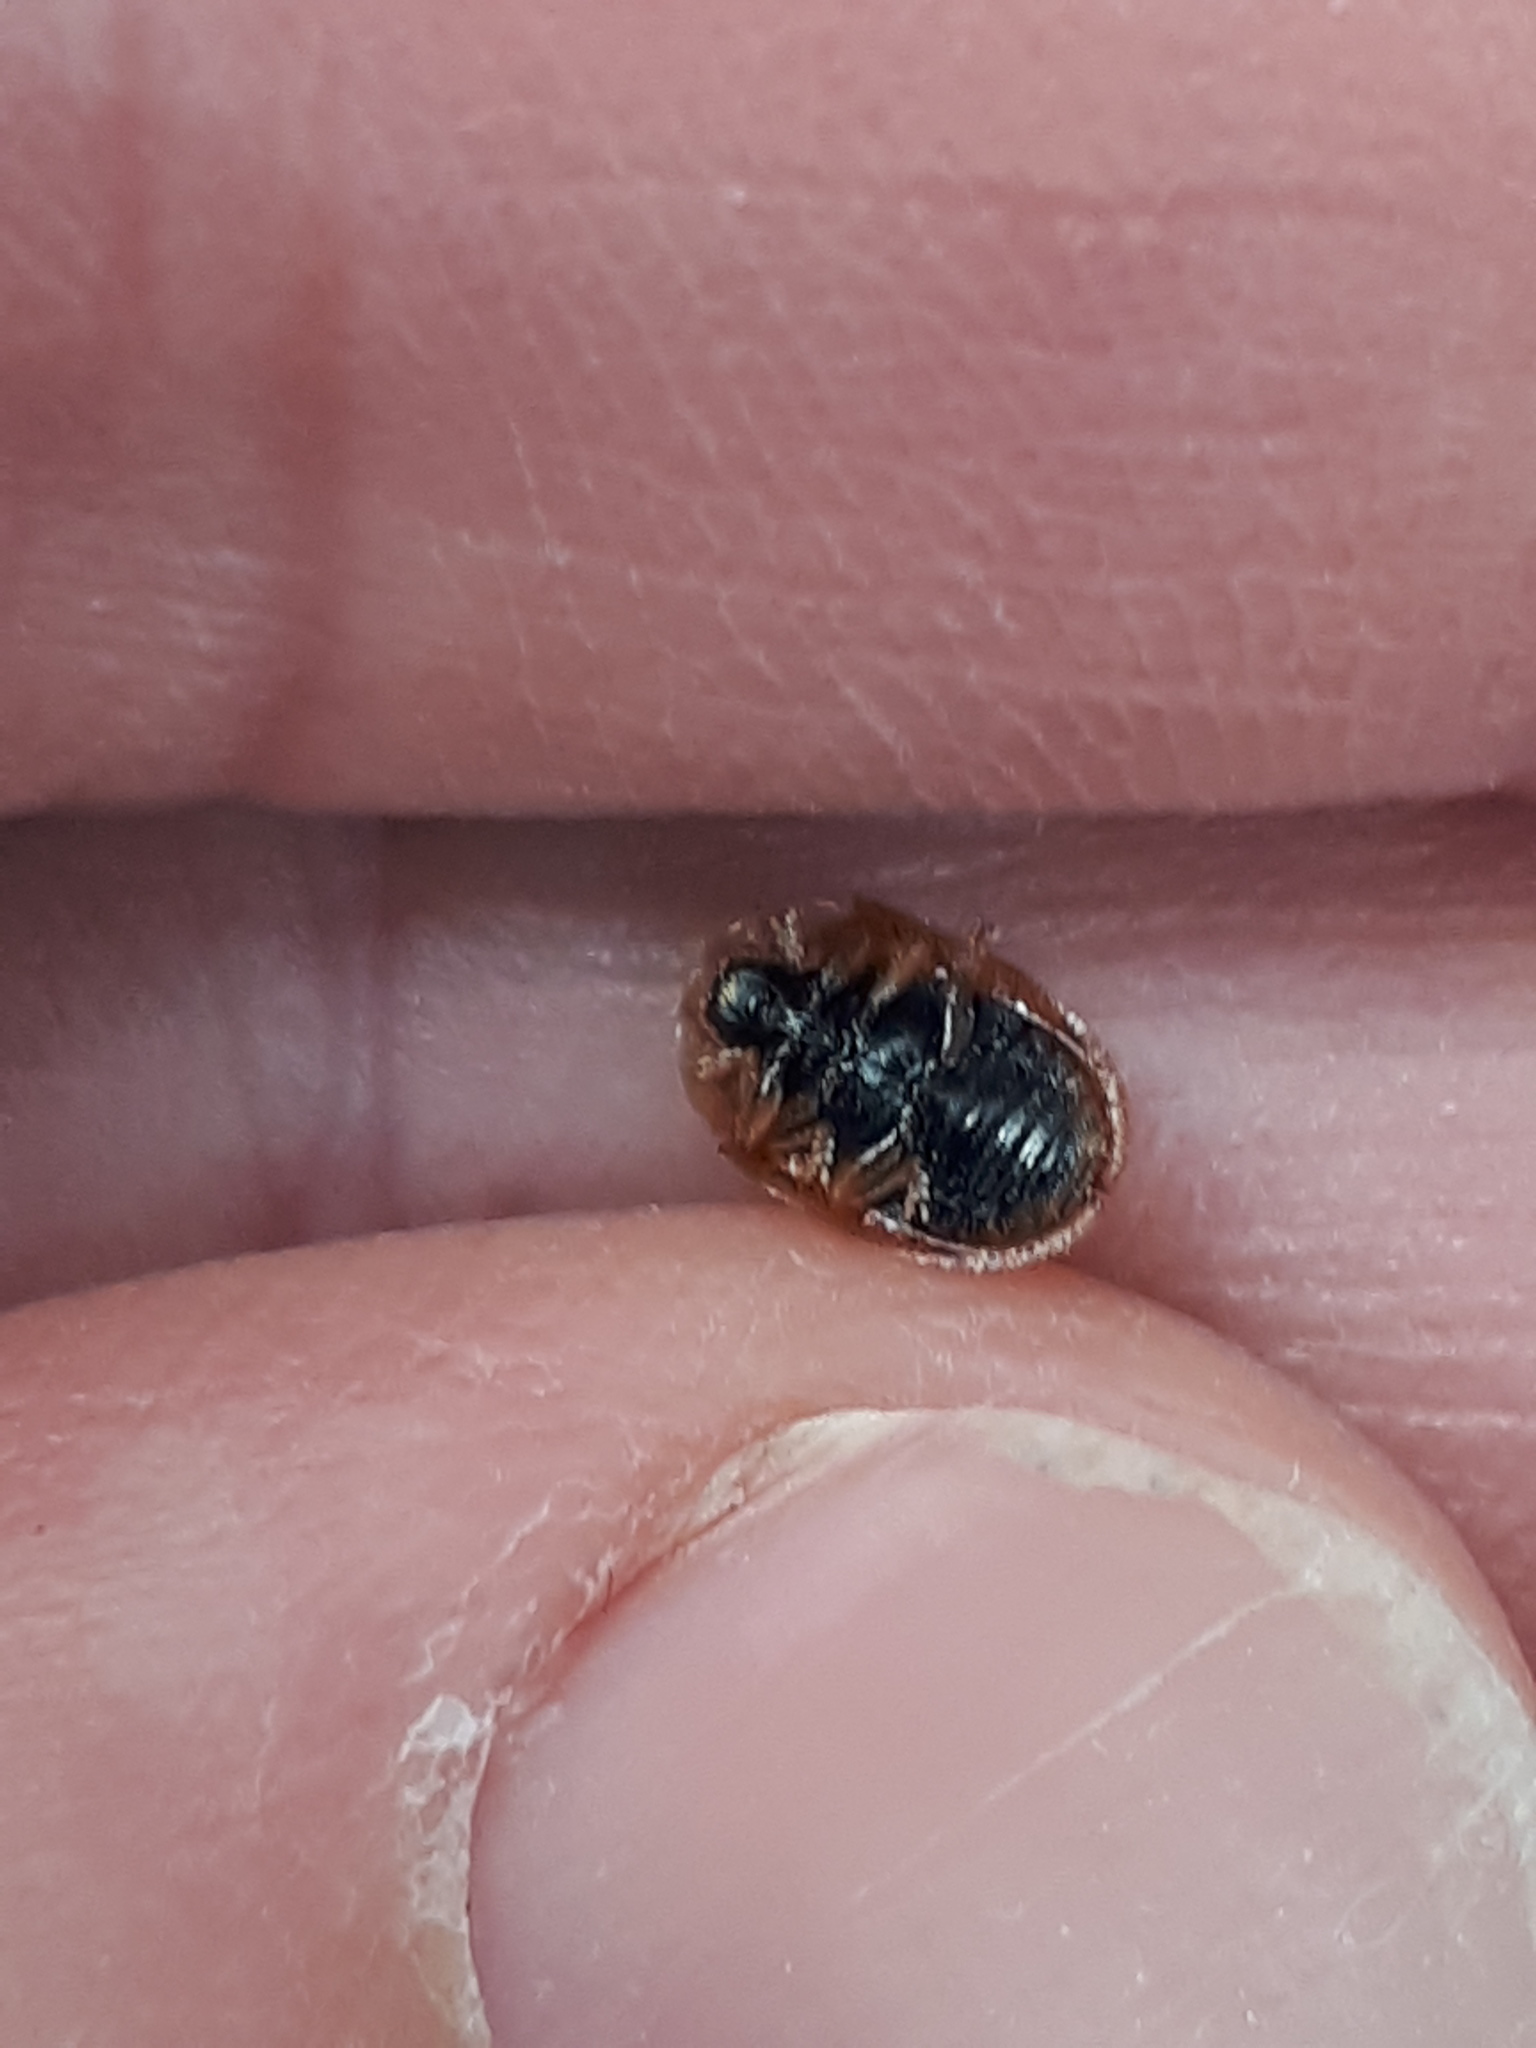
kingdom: Animalia
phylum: Arthropoda
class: Insecta
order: Coleoptera
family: Chrysomelidae
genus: Hypocassida
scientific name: Hypocassida subferruginea
